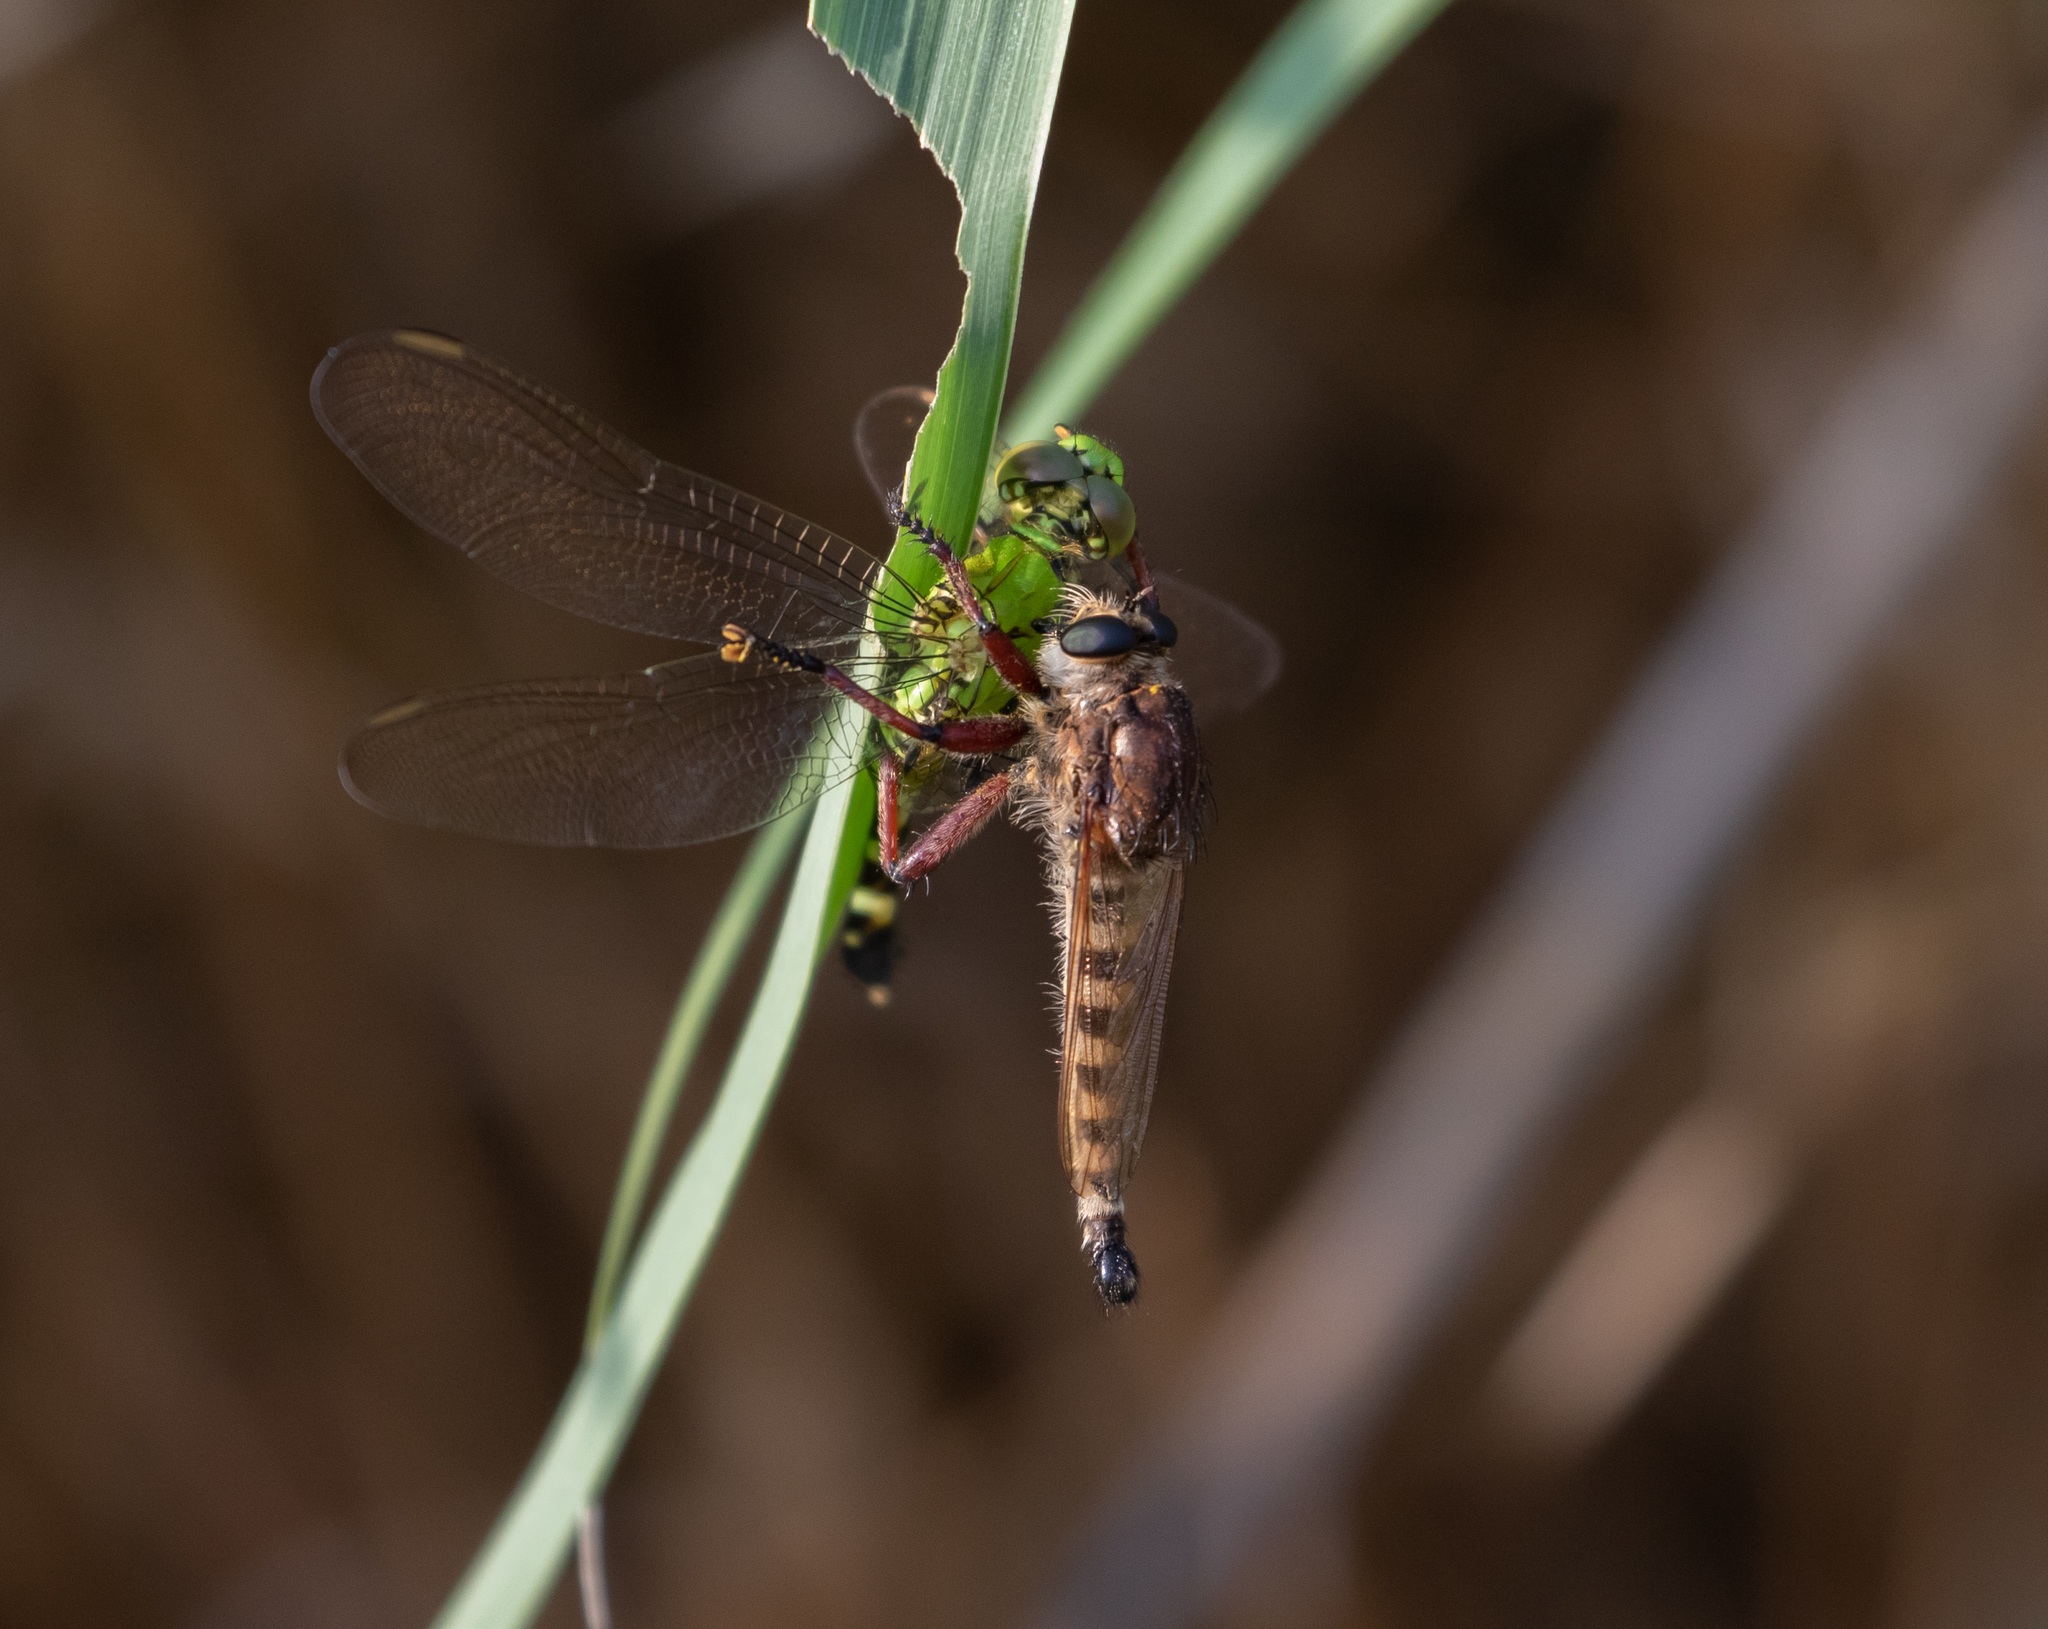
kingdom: Animalia
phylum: Arthropoda
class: Insecta
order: Odonata
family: Libellulidae
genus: Erythemis
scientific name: Erythemis simplicicollis
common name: Eastern pondhawk
